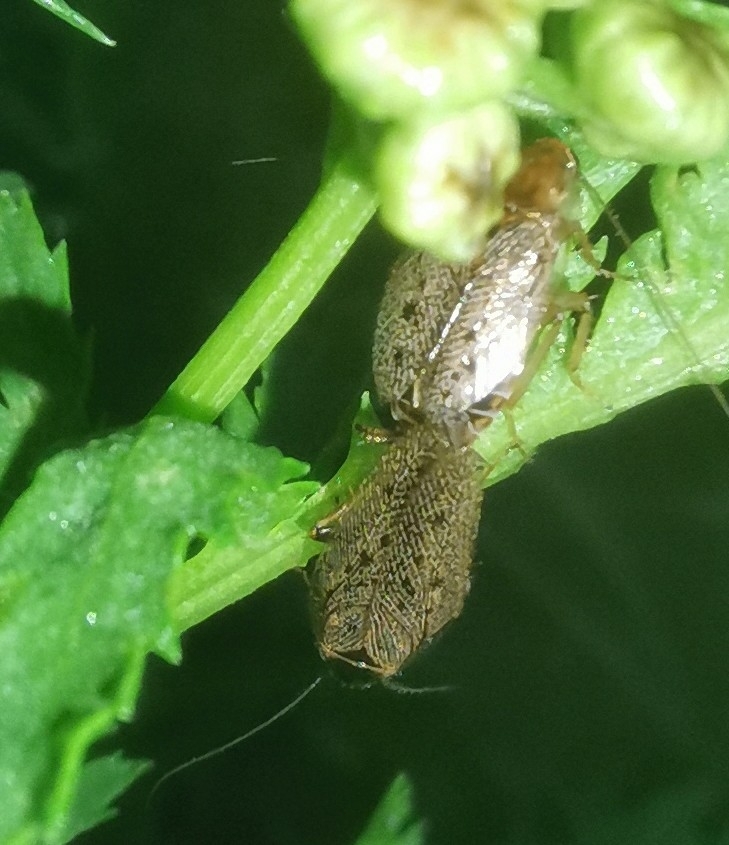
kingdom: Animalia
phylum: Arthropoda
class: Insecta
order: Blattodea
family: Ectobiidae
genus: Ectobius
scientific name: Ectobius lapponicus
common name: Dusky cockroach
